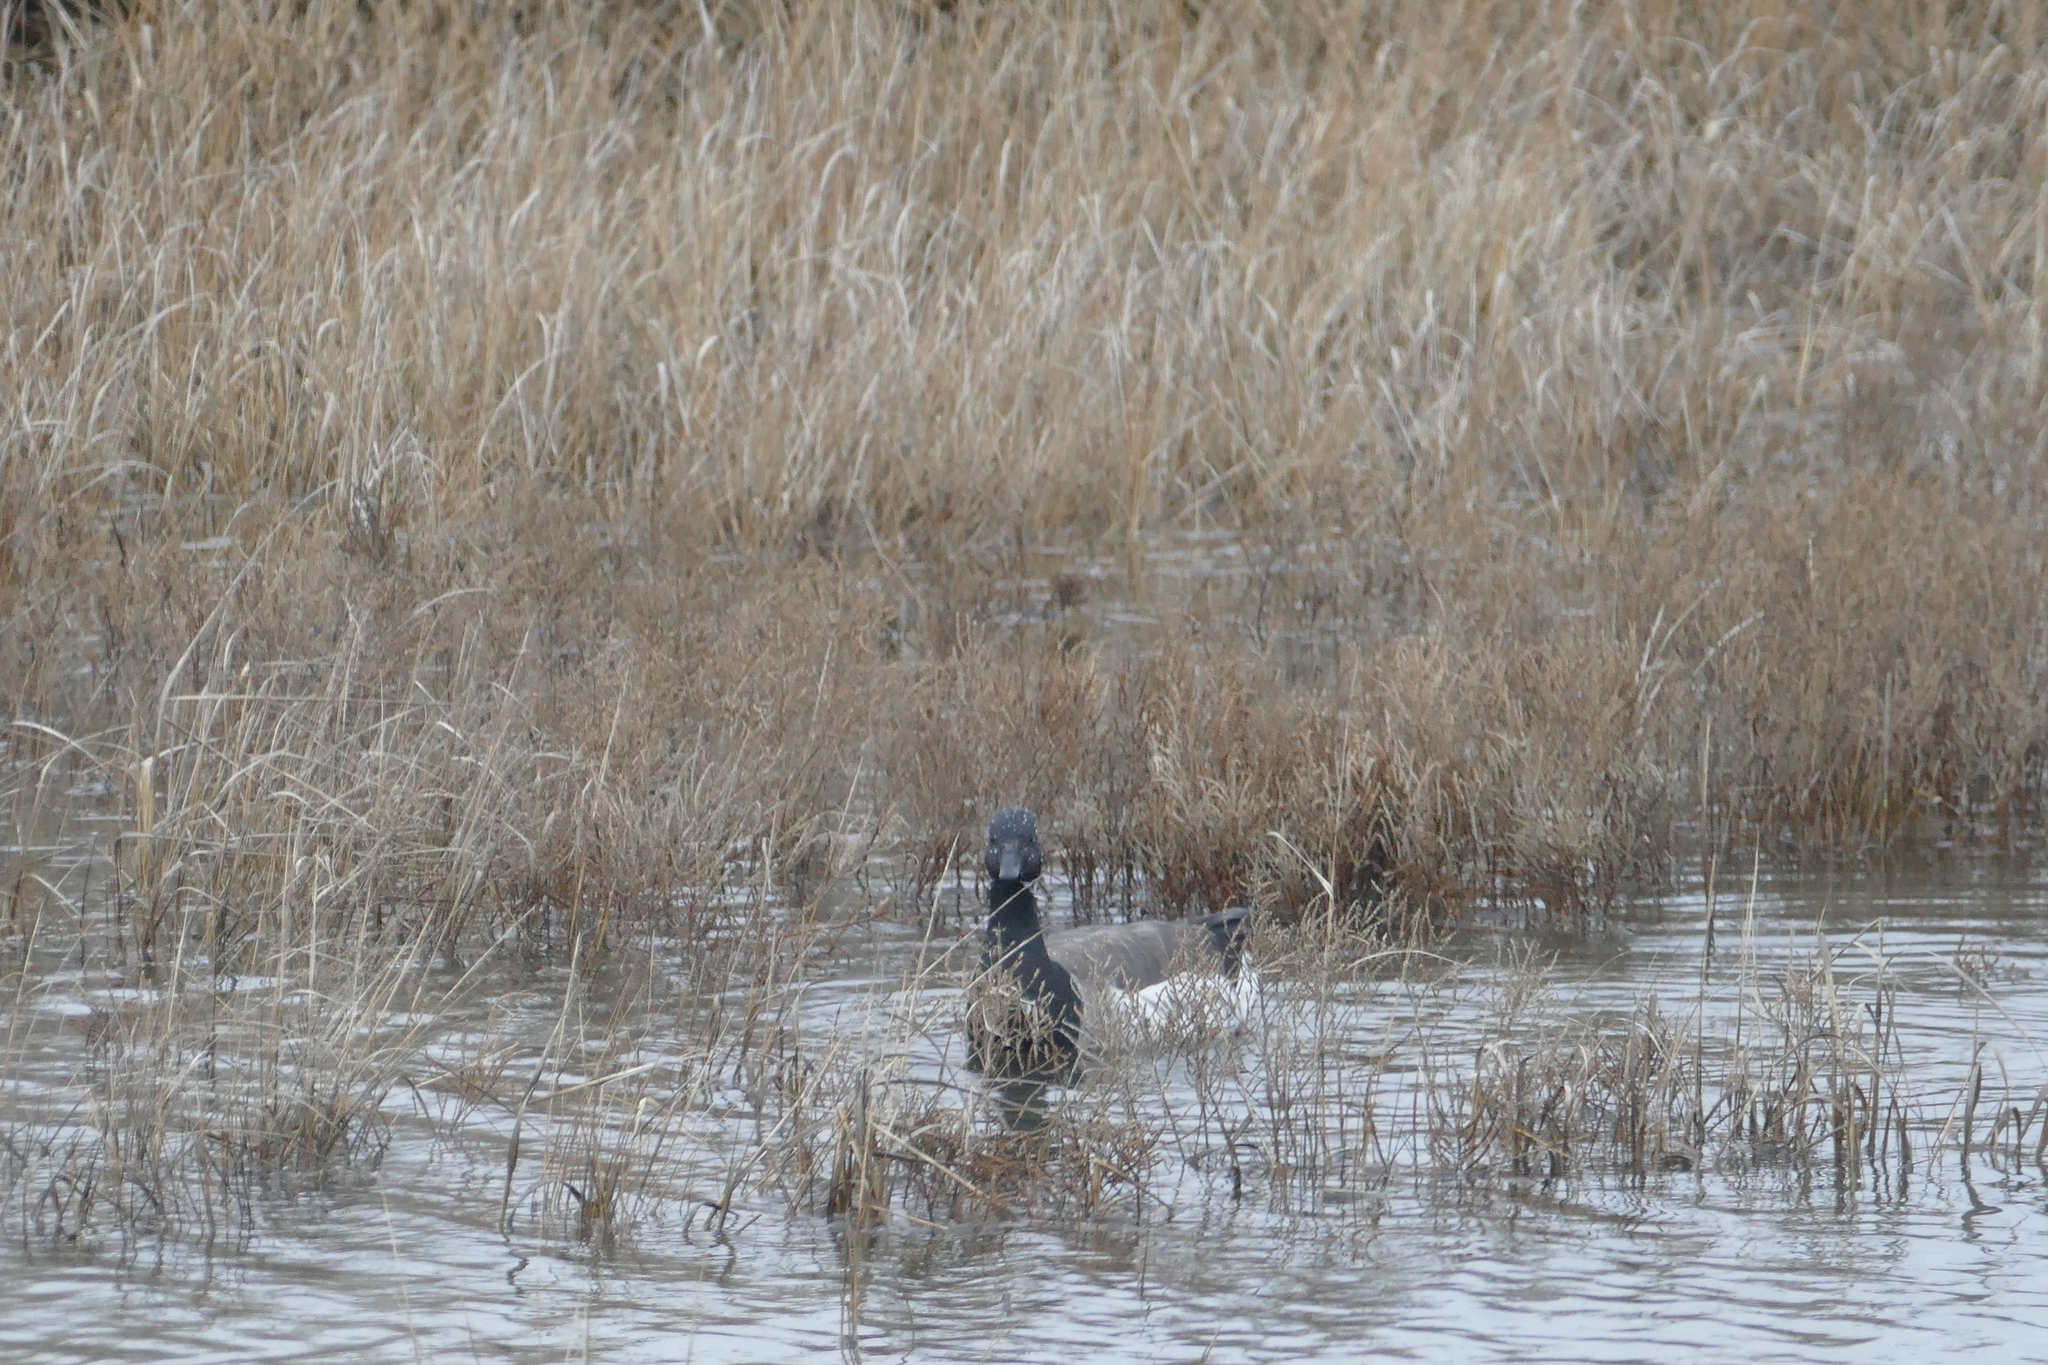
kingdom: Animalia
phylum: Chordata
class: Aves
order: Anseriformes
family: Anatidae
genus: Branta
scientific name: Branta bernicla
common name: Brant goose
